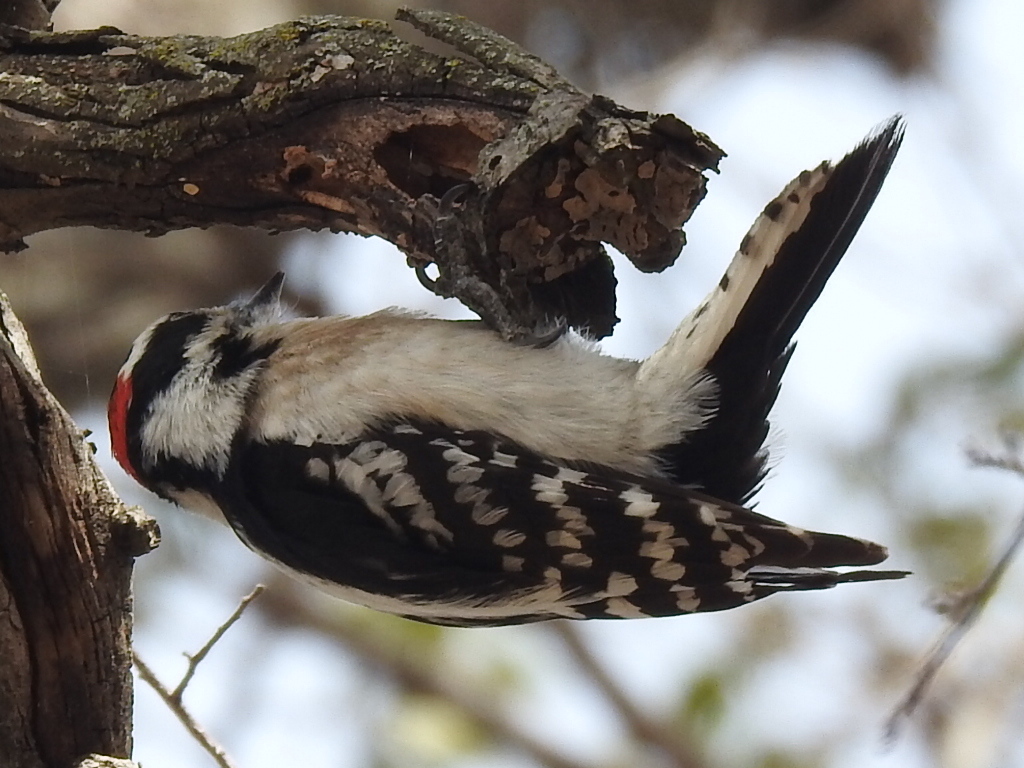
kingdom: Animalia
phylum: Chordata
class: Aves
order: Piciformes
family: Picidae
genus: Dryobates
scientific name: Dryobates pubescens
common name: Downy woodpecker
